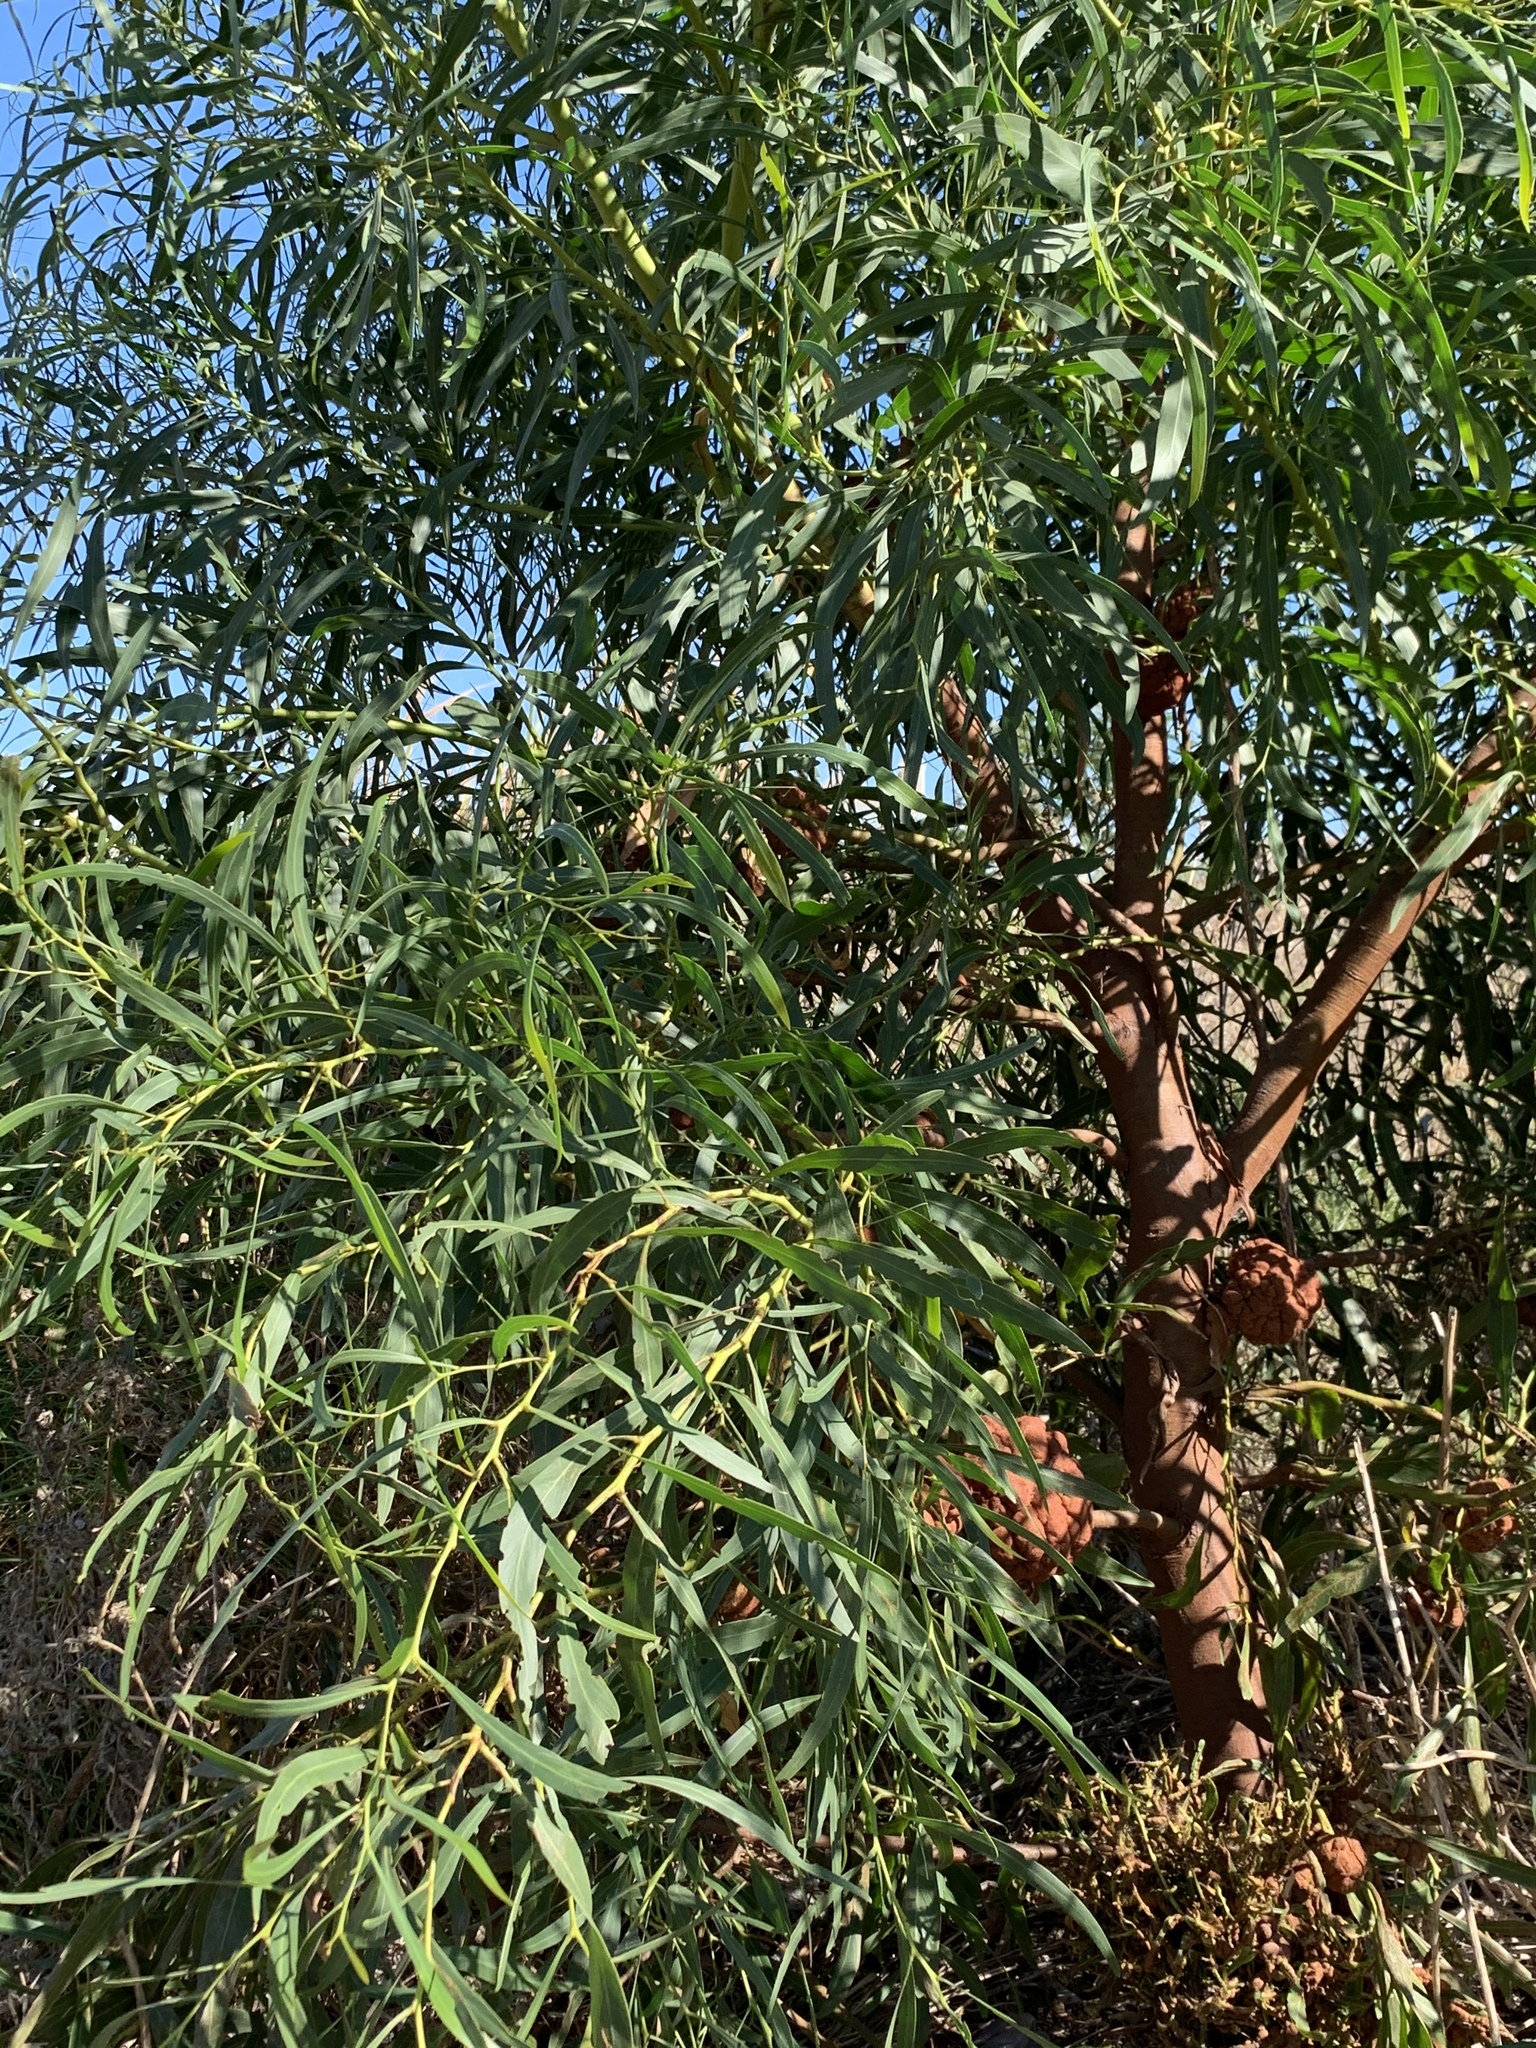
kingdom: Plantae
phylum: Tracheophyta
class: Magnoliopsida
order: Fabales
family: Fabaceae
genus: Acacia
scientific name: Acacia saligna
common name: Orange wattle
